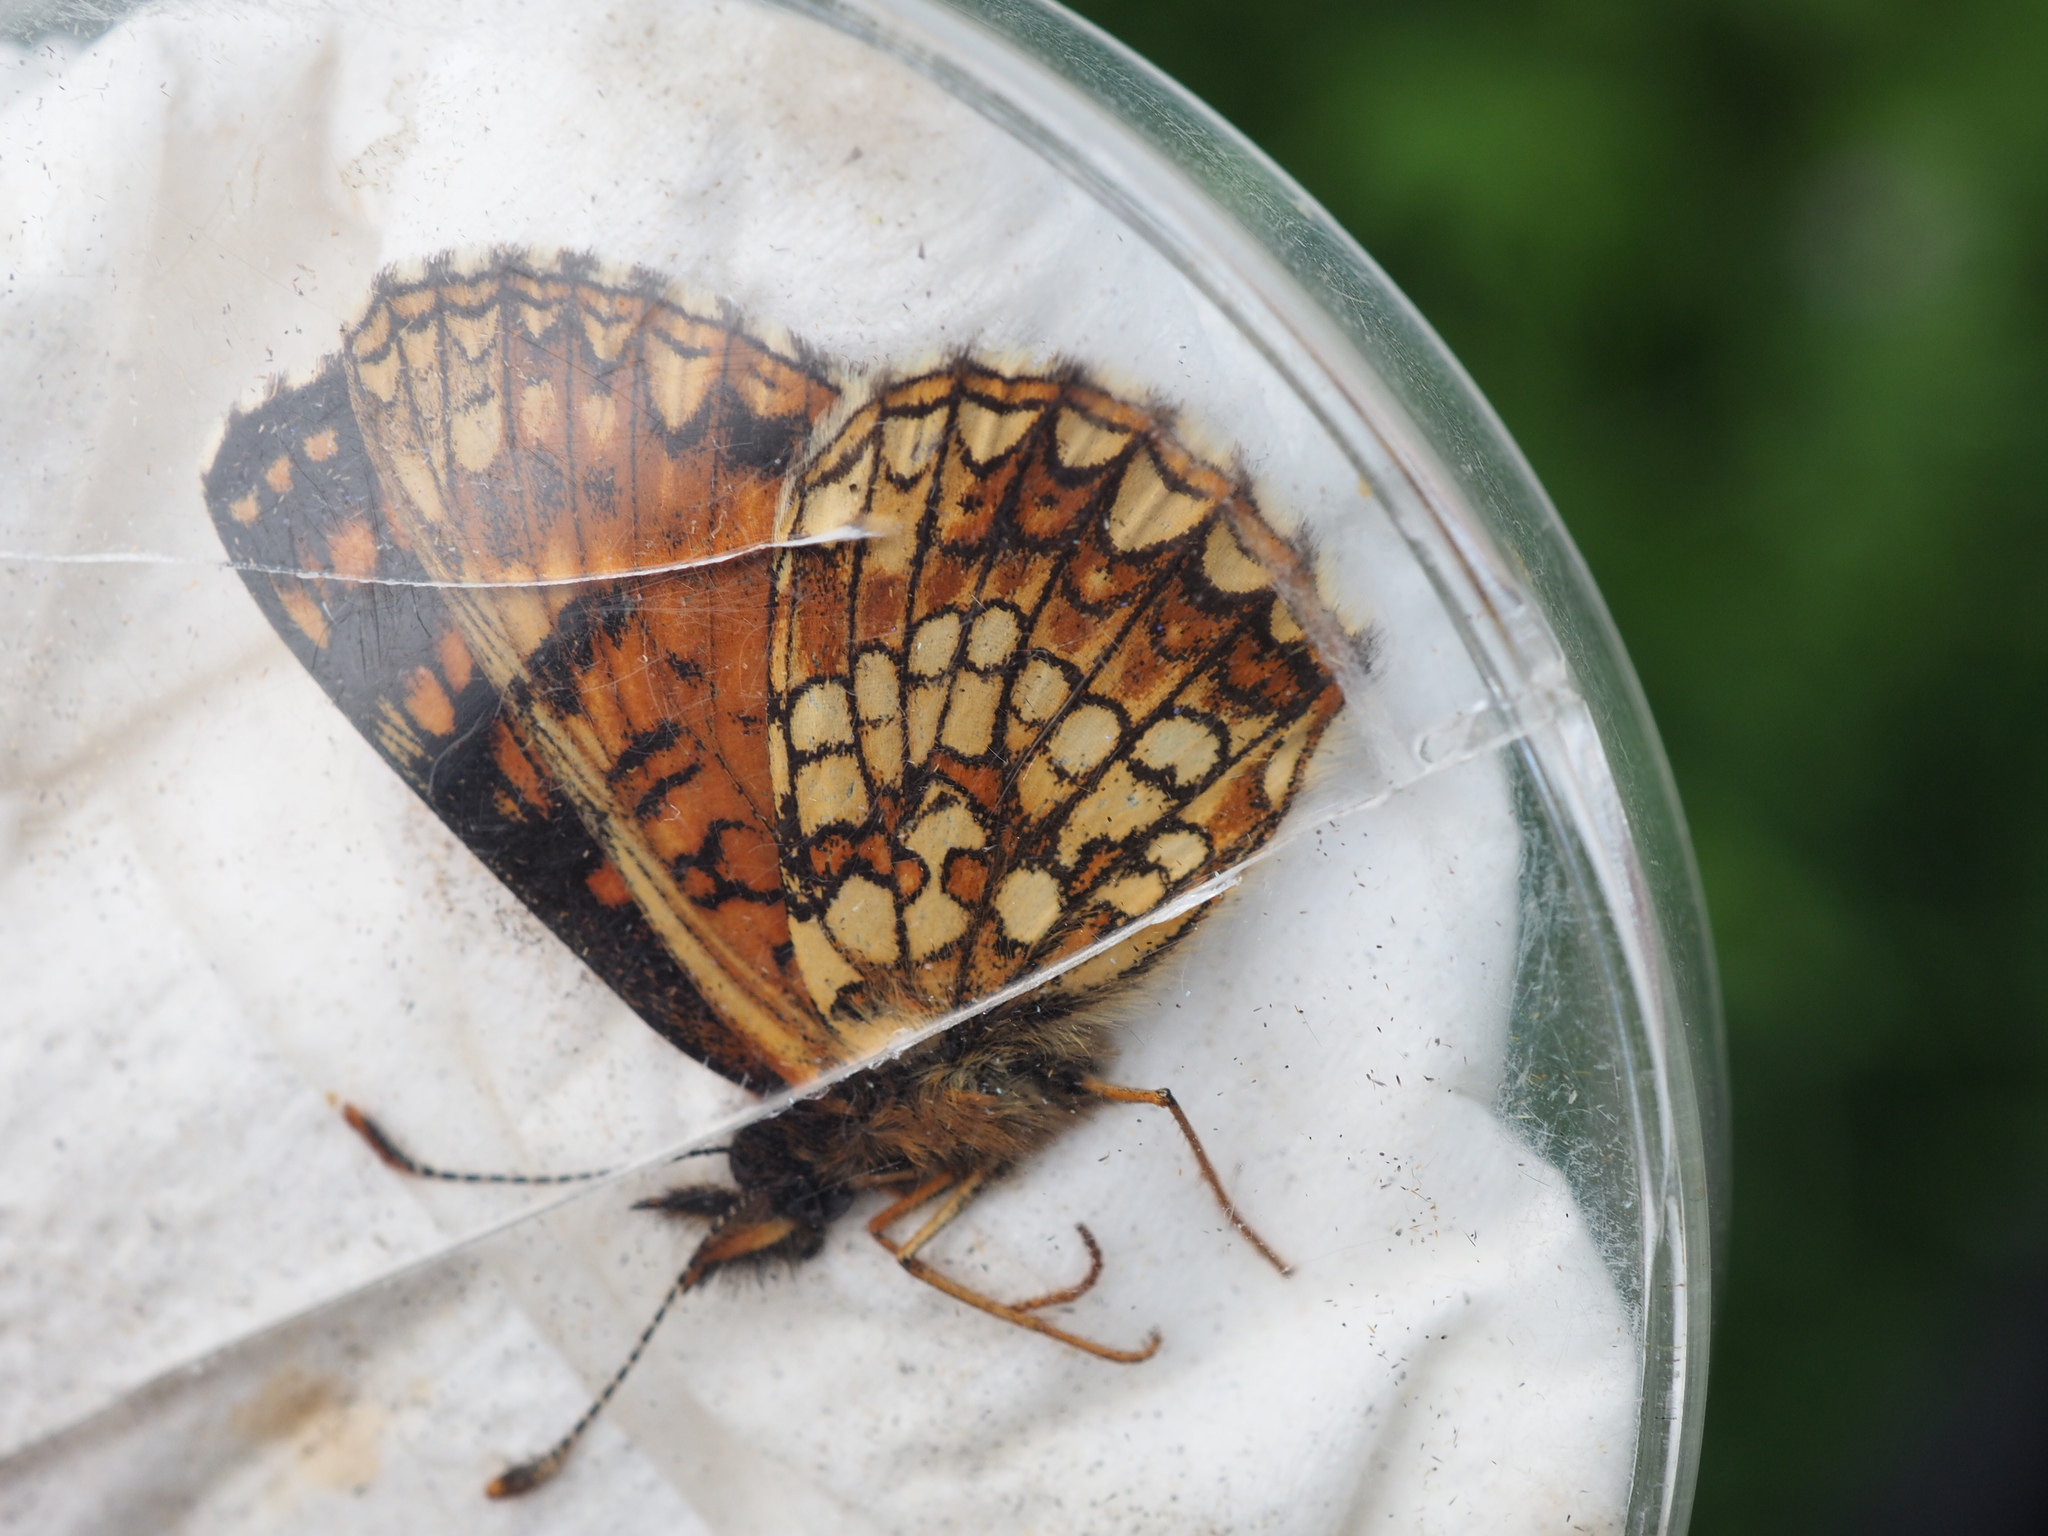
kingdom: Animalia
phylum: Arthropoda
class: Insecta
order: Lepidoptera
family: Nymphalidae
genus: Melitaea
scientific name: Melitaea diamina
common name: False heath fritillary
